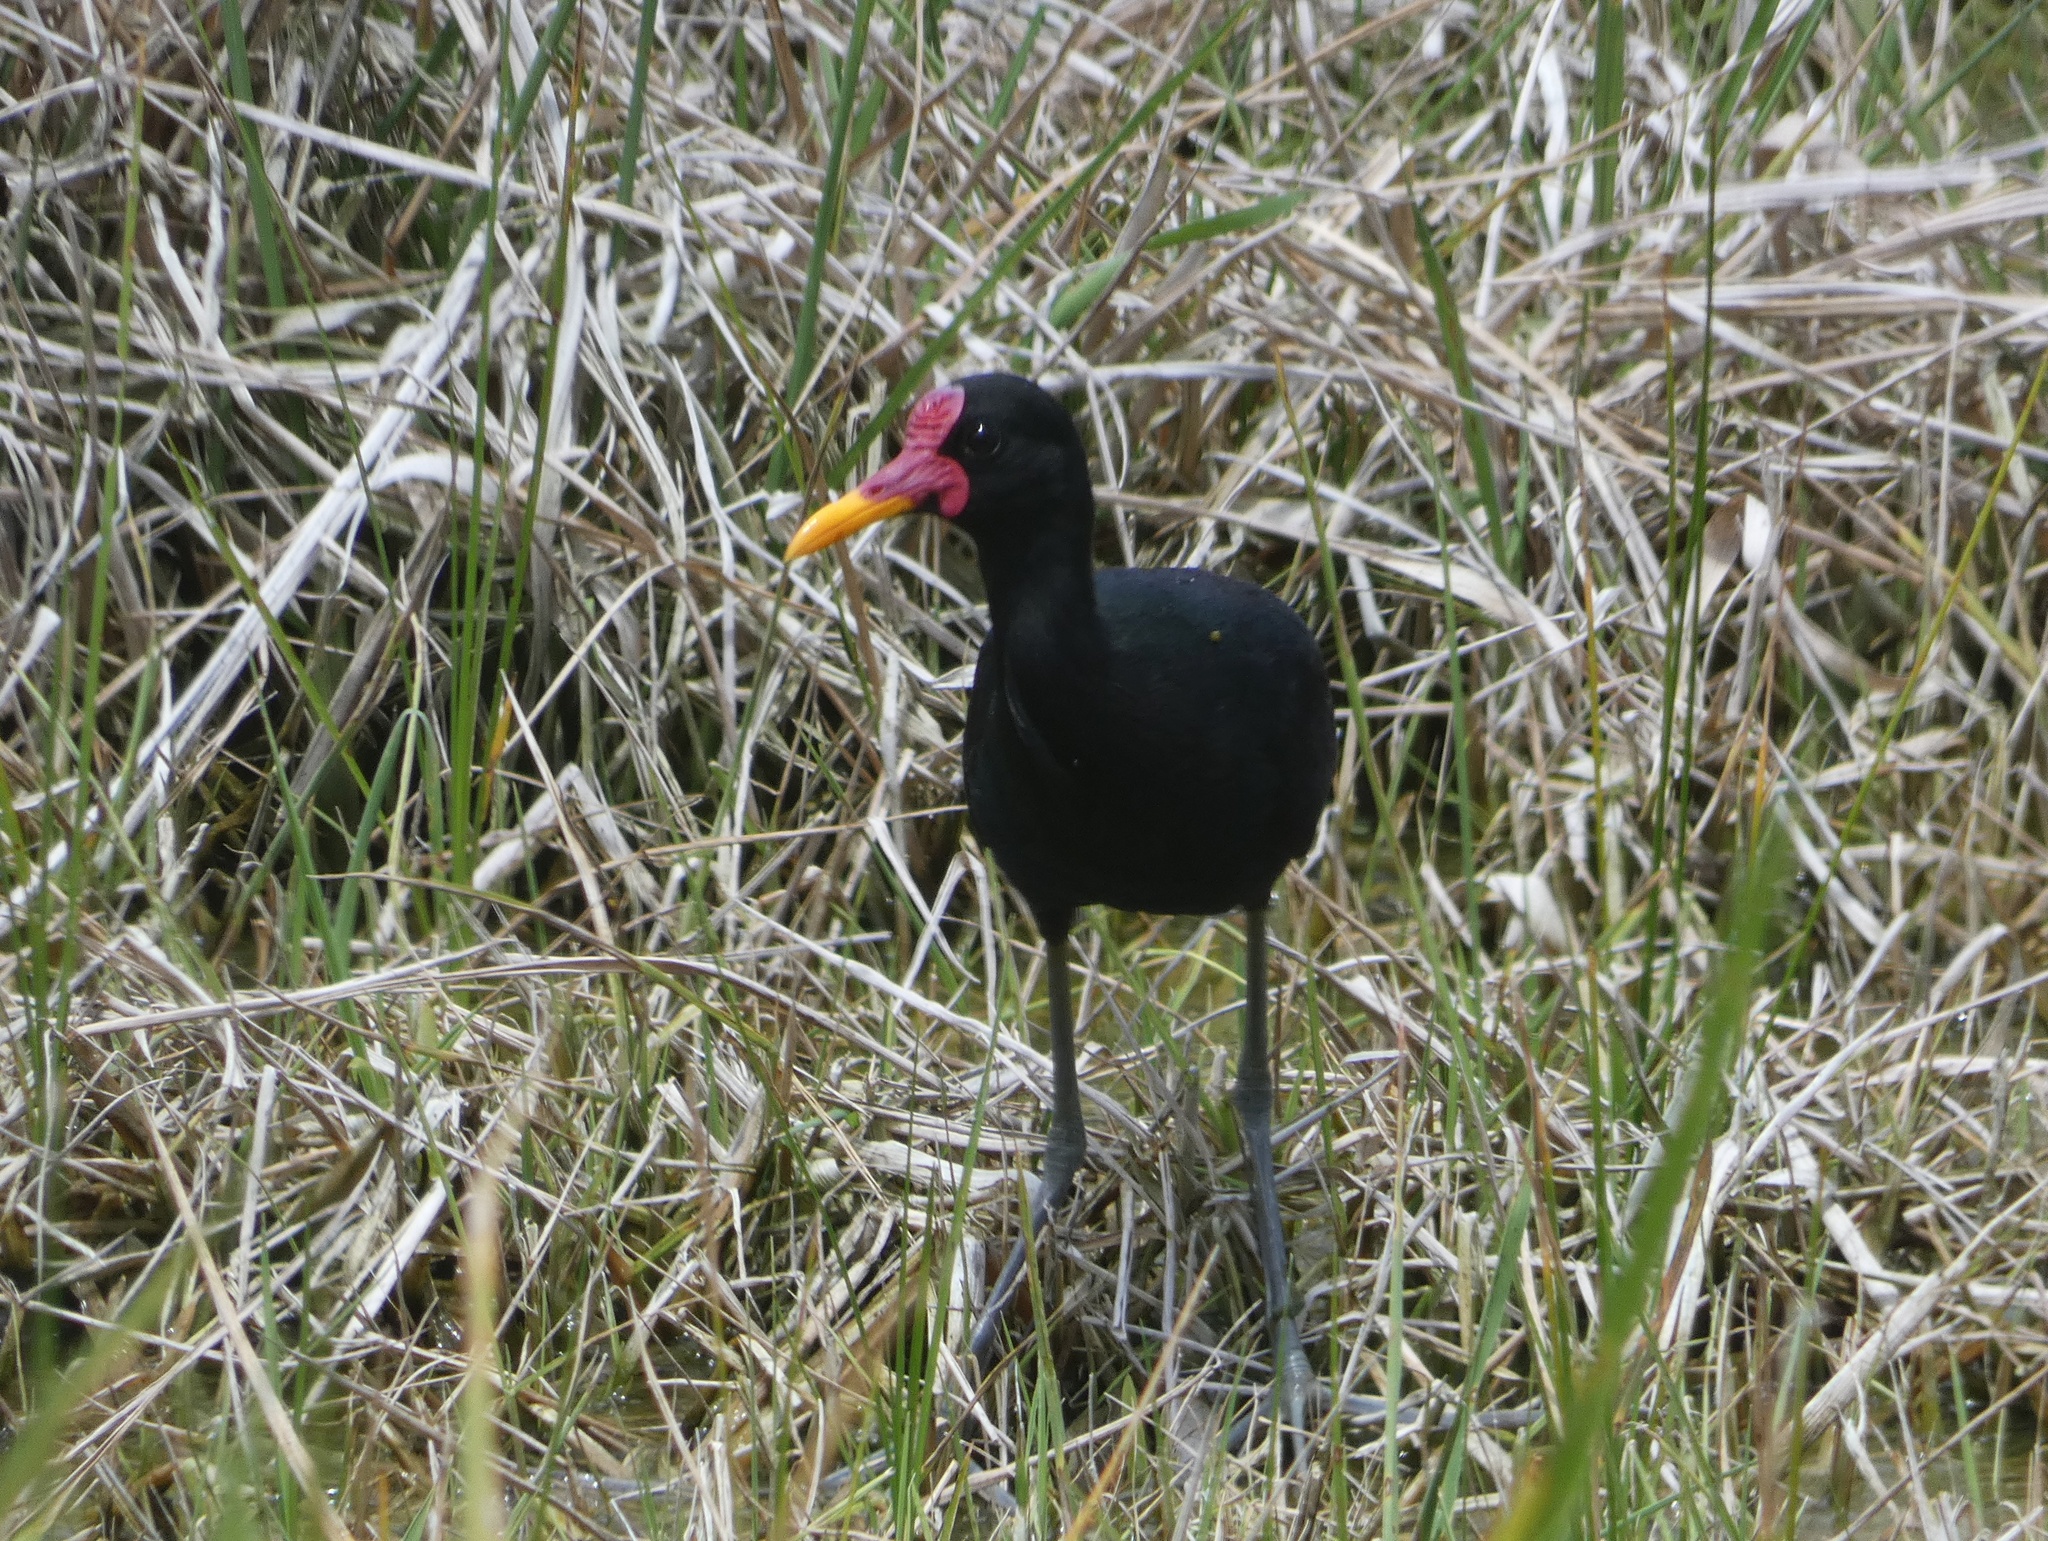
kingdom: Animalia
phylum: Chordata
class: Aves
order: Charadriiformes
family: Jacanidae
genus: Jacana
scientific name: Jacana jacana
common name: Wattled jacana
